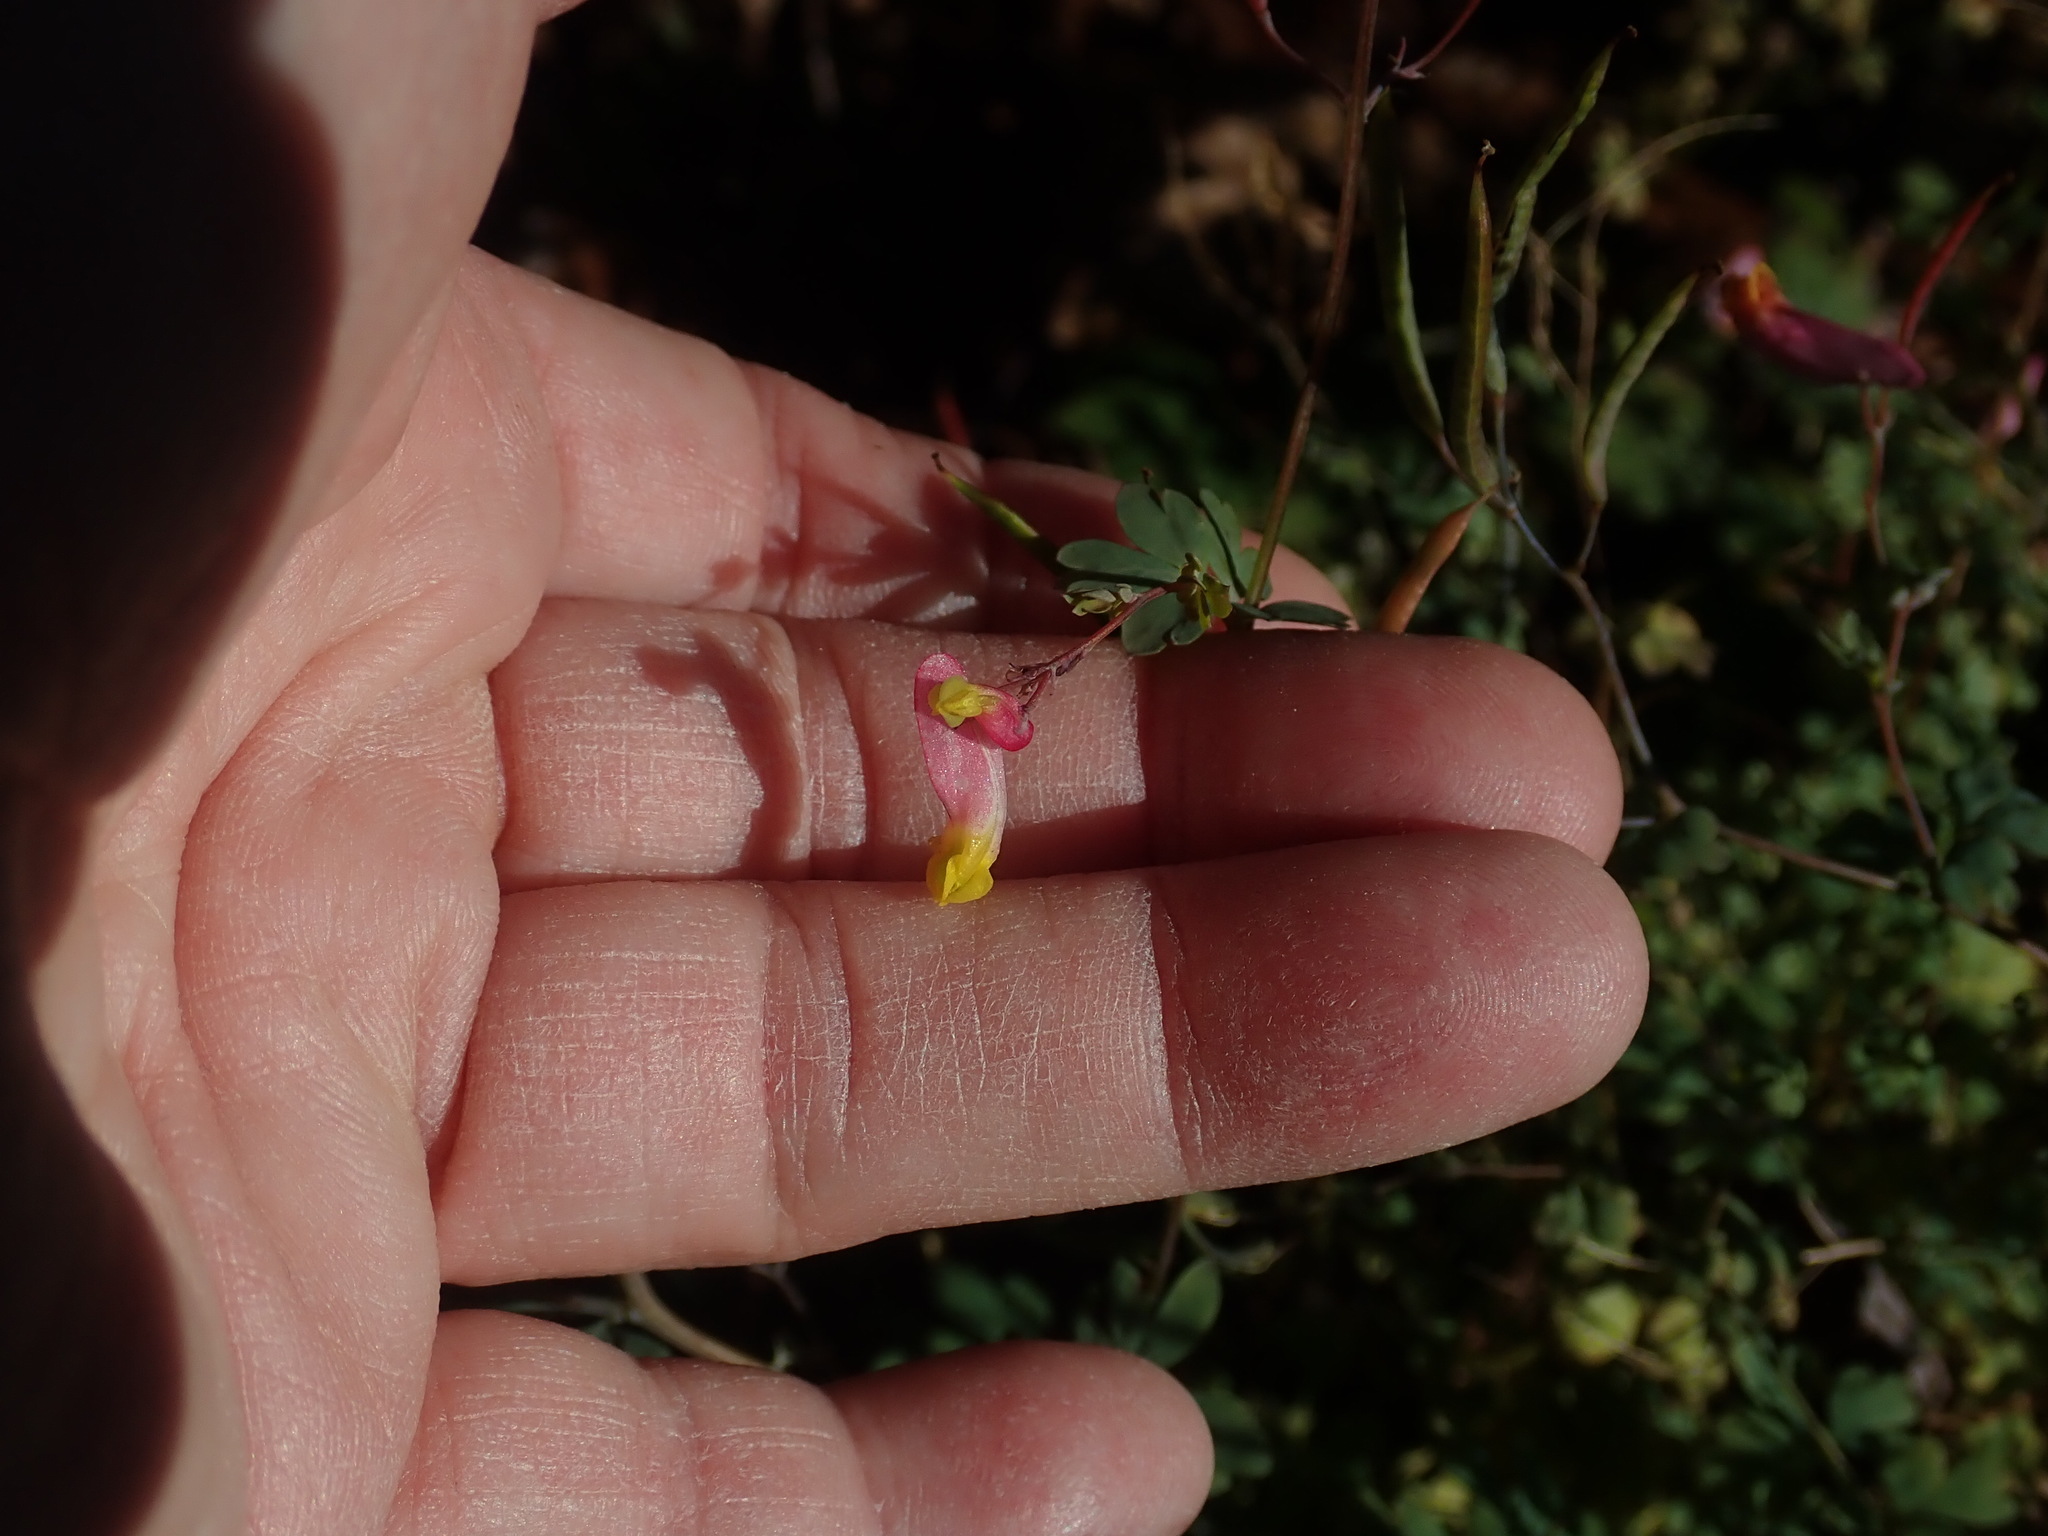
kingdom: Plantae
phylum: Tracheophyta
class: Magnoliopsida
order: Ranunculales
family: Papaveraceae
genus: Capnoides
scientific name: Capnoides sempervirens
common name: Rock harlequin
